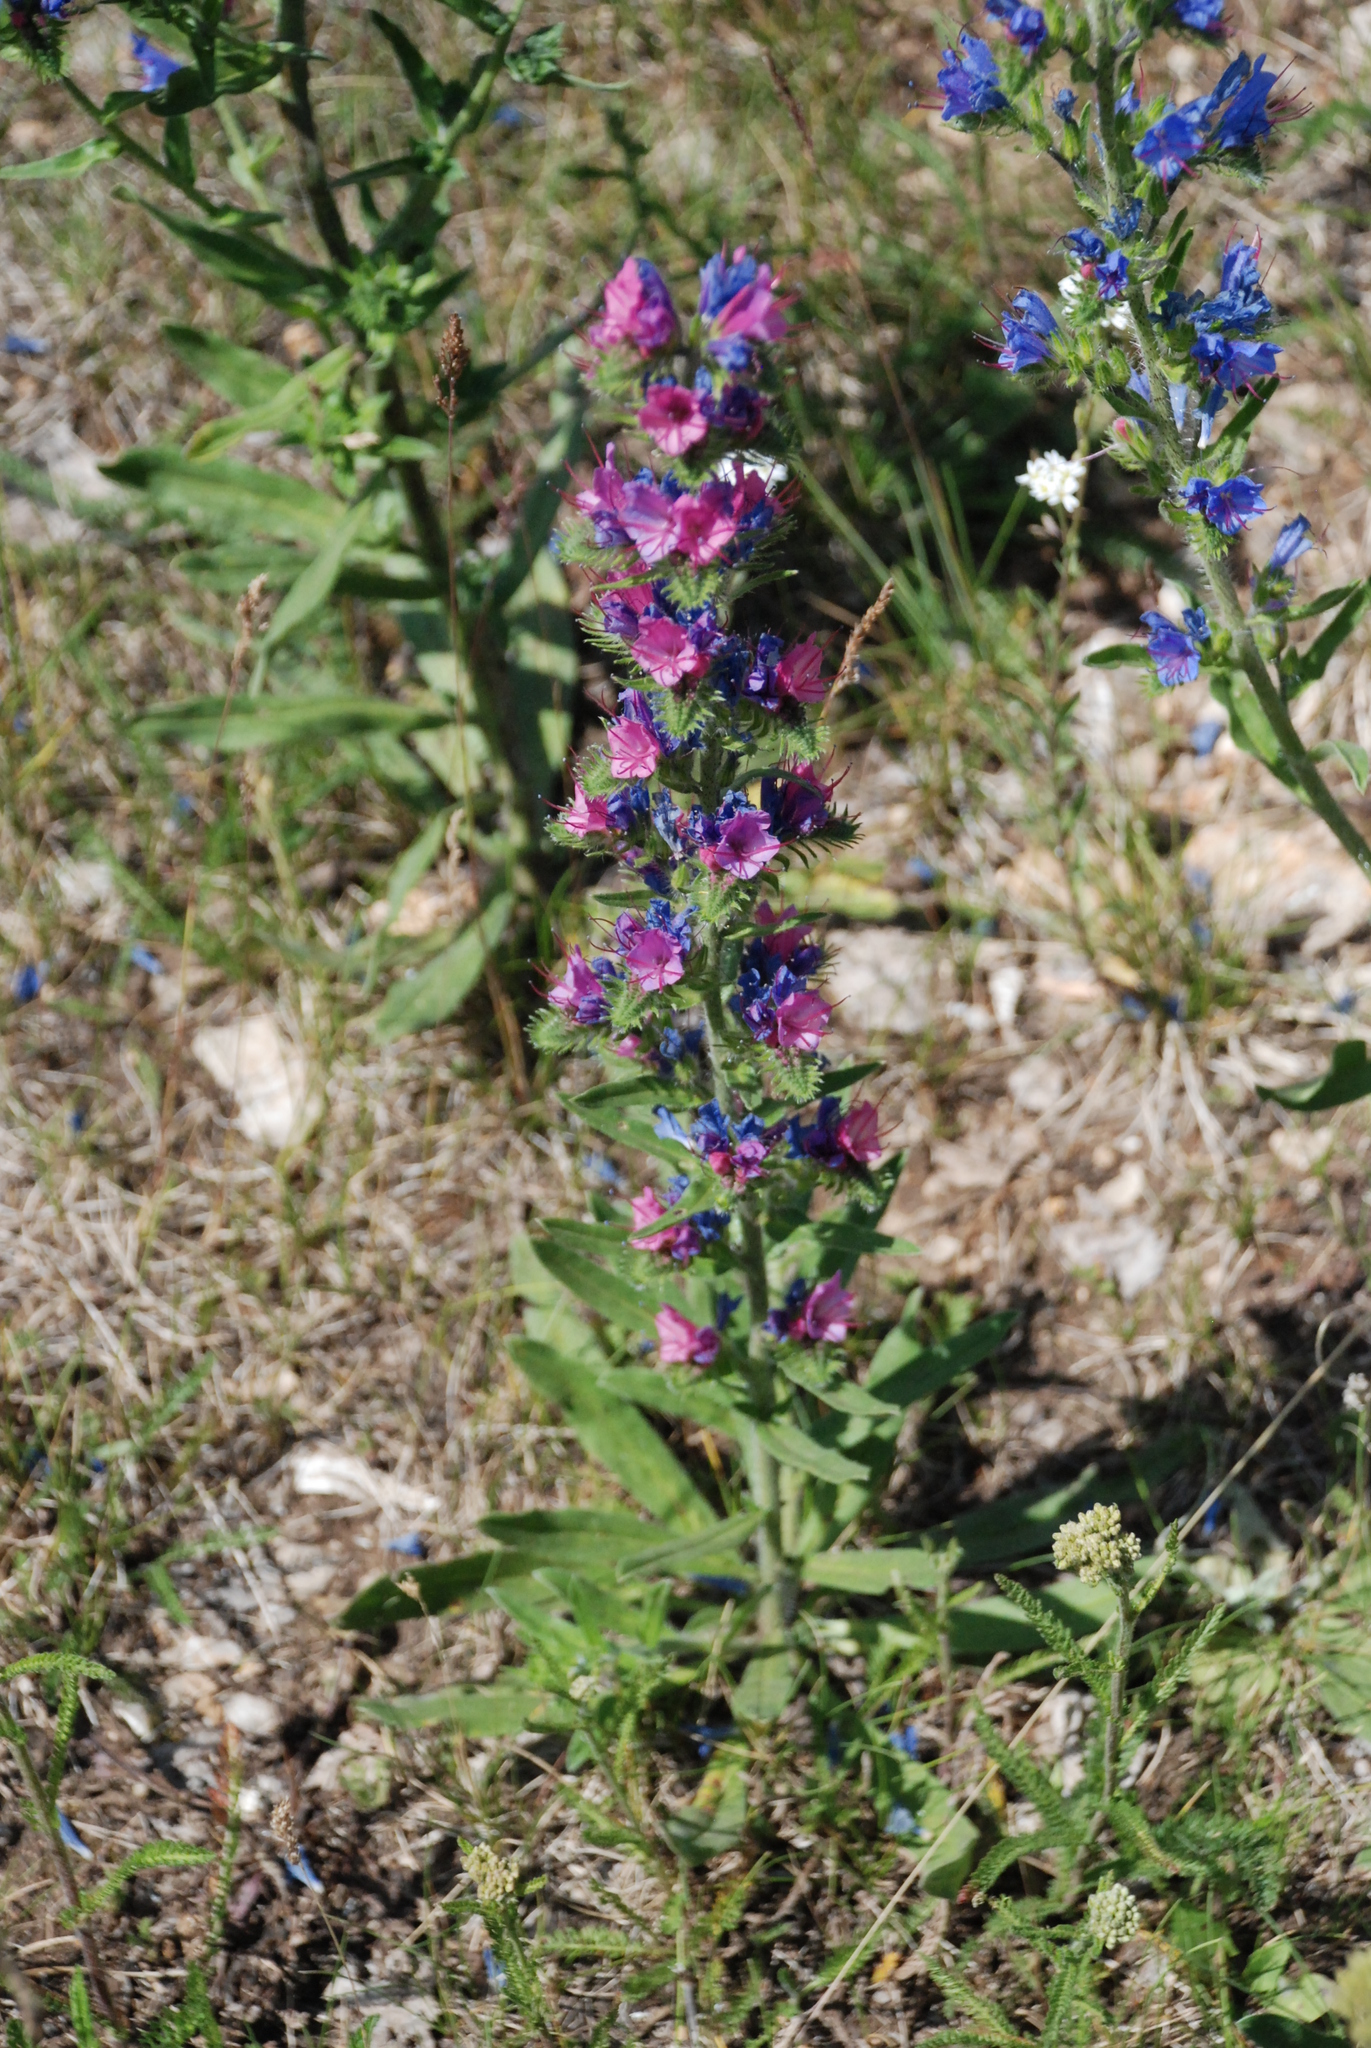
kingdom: Plantae
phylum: Tracheophyta
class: Magnoliopsida
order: Boraginales
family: Boraginaceae
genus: Echium
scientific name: Echium vulgare
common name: Common viper's bugloss
